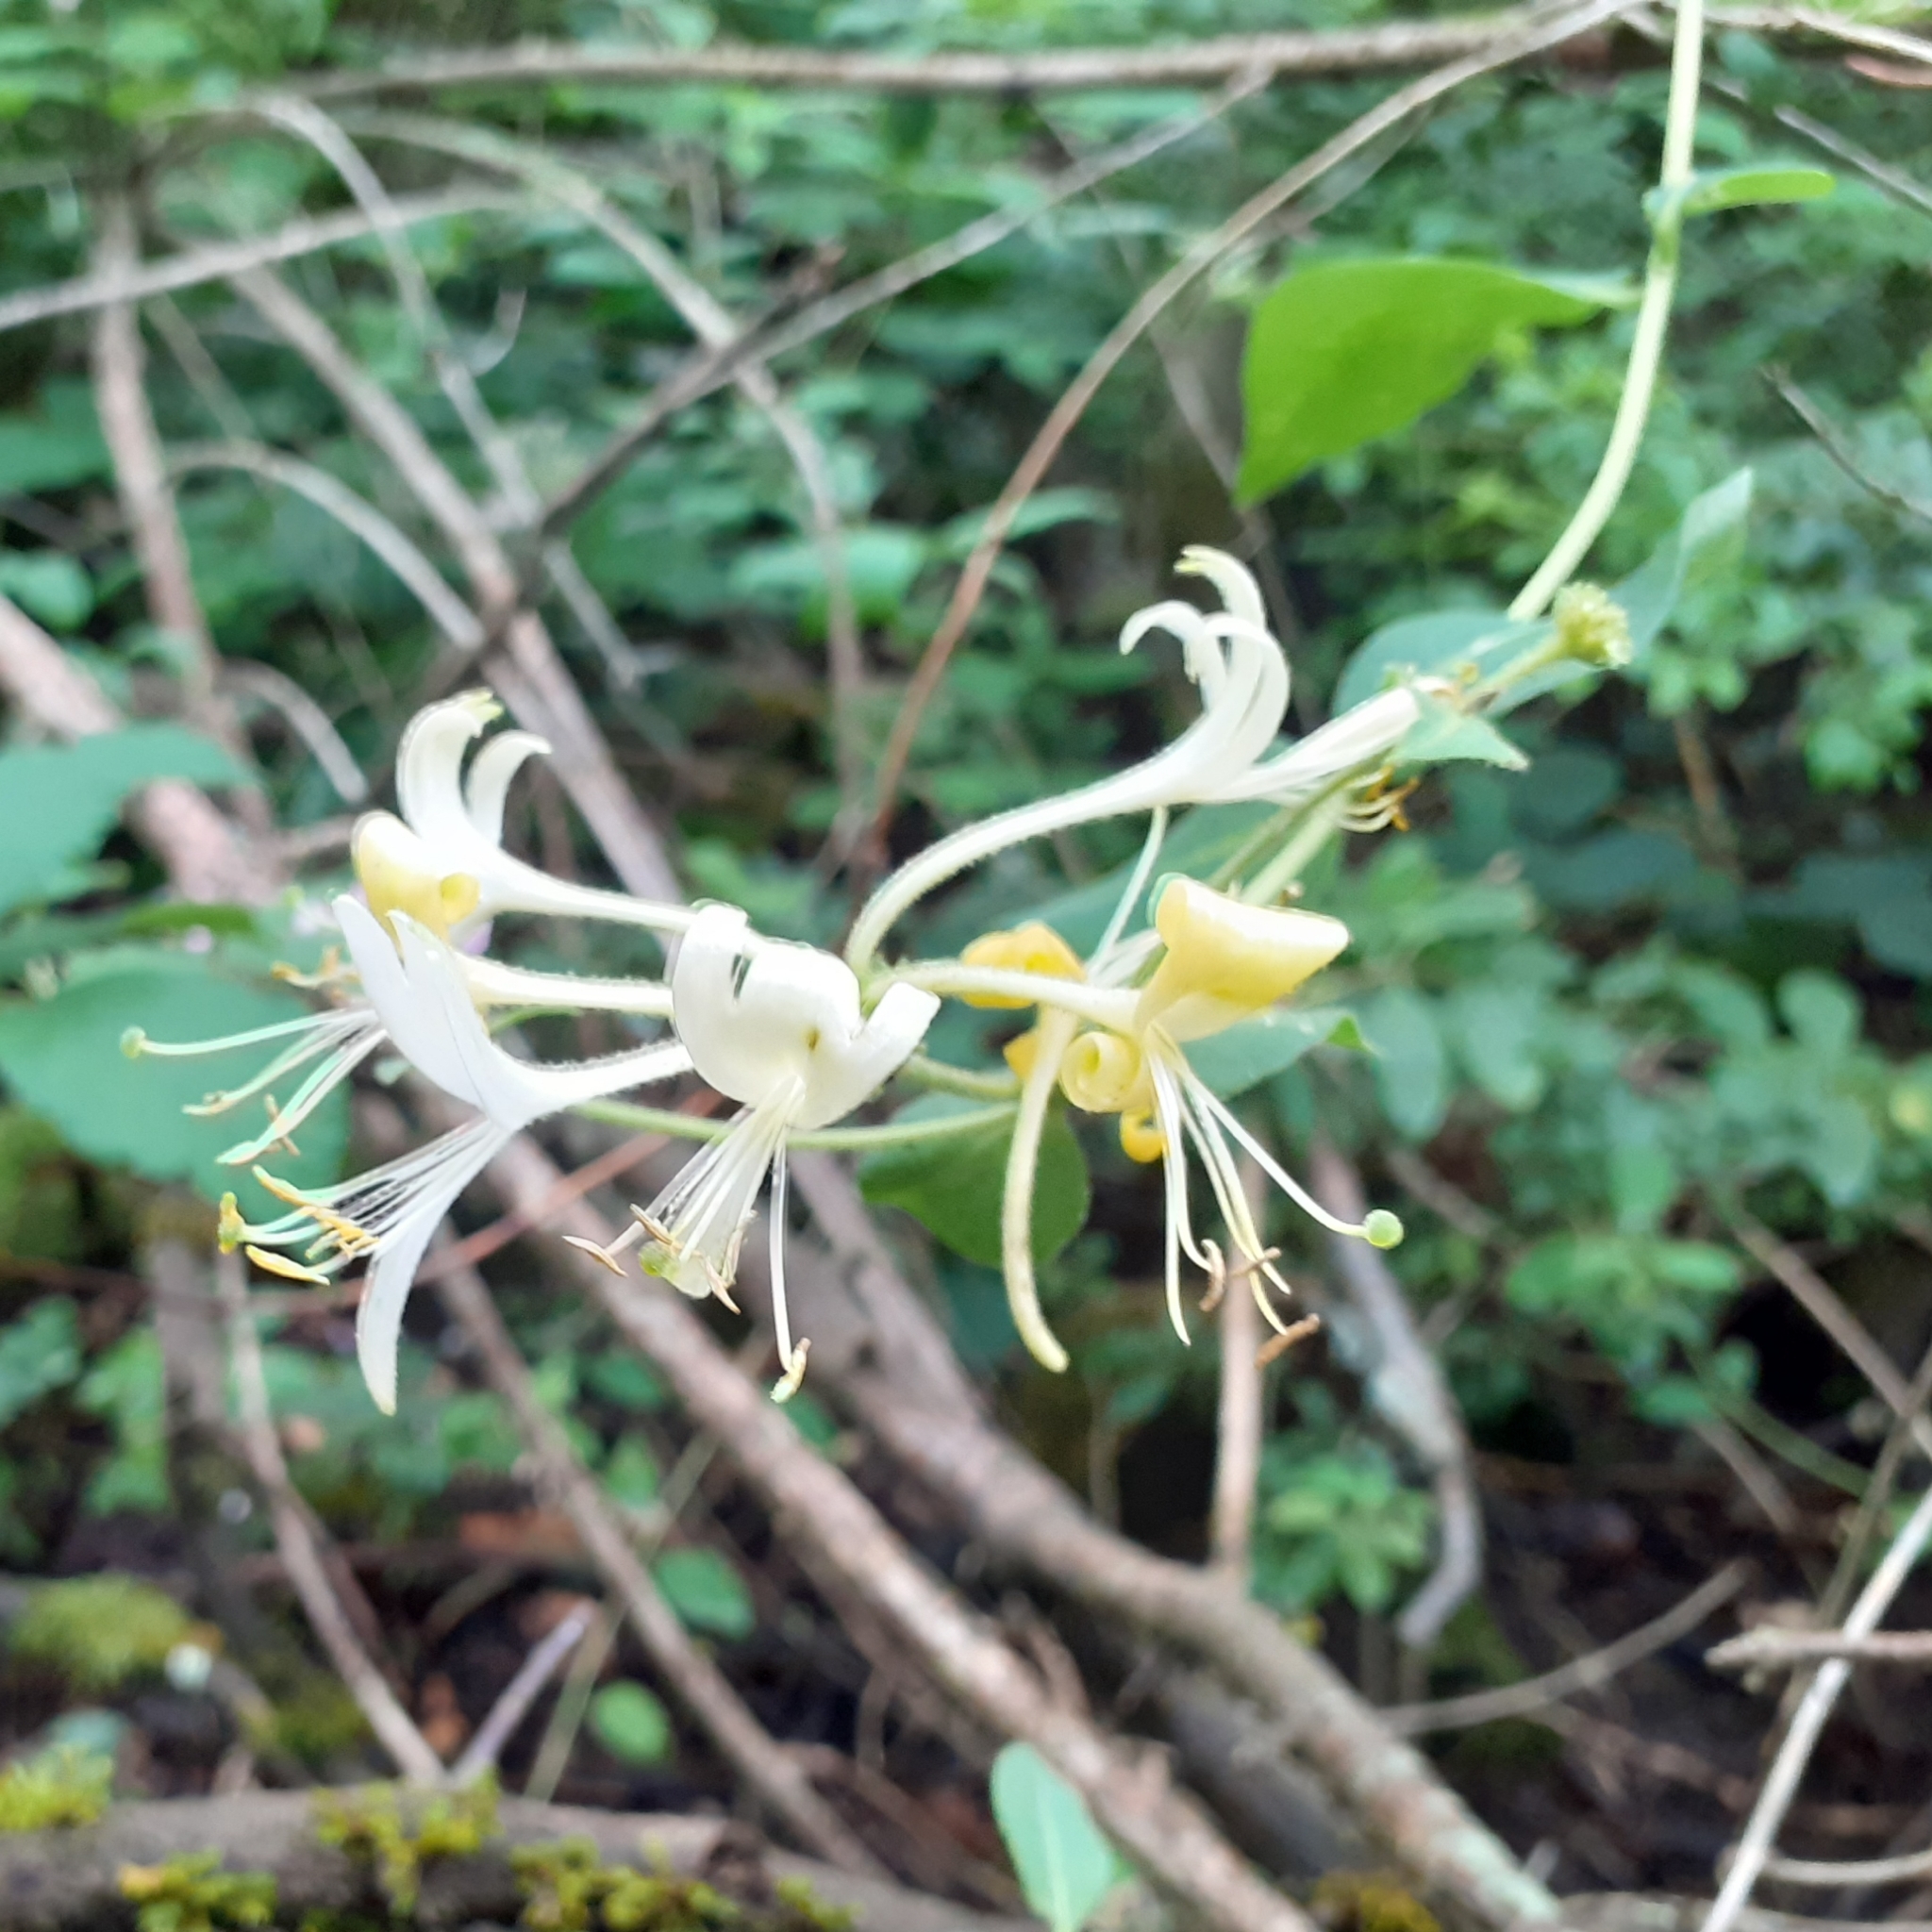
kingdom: Plantae
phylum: Tracheophyta
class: Magnoliopsida
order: Dipsacales
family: Caprifoliaceae
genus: Lonicera
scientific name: Lonicera periclymenum
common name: European honeysuckle
